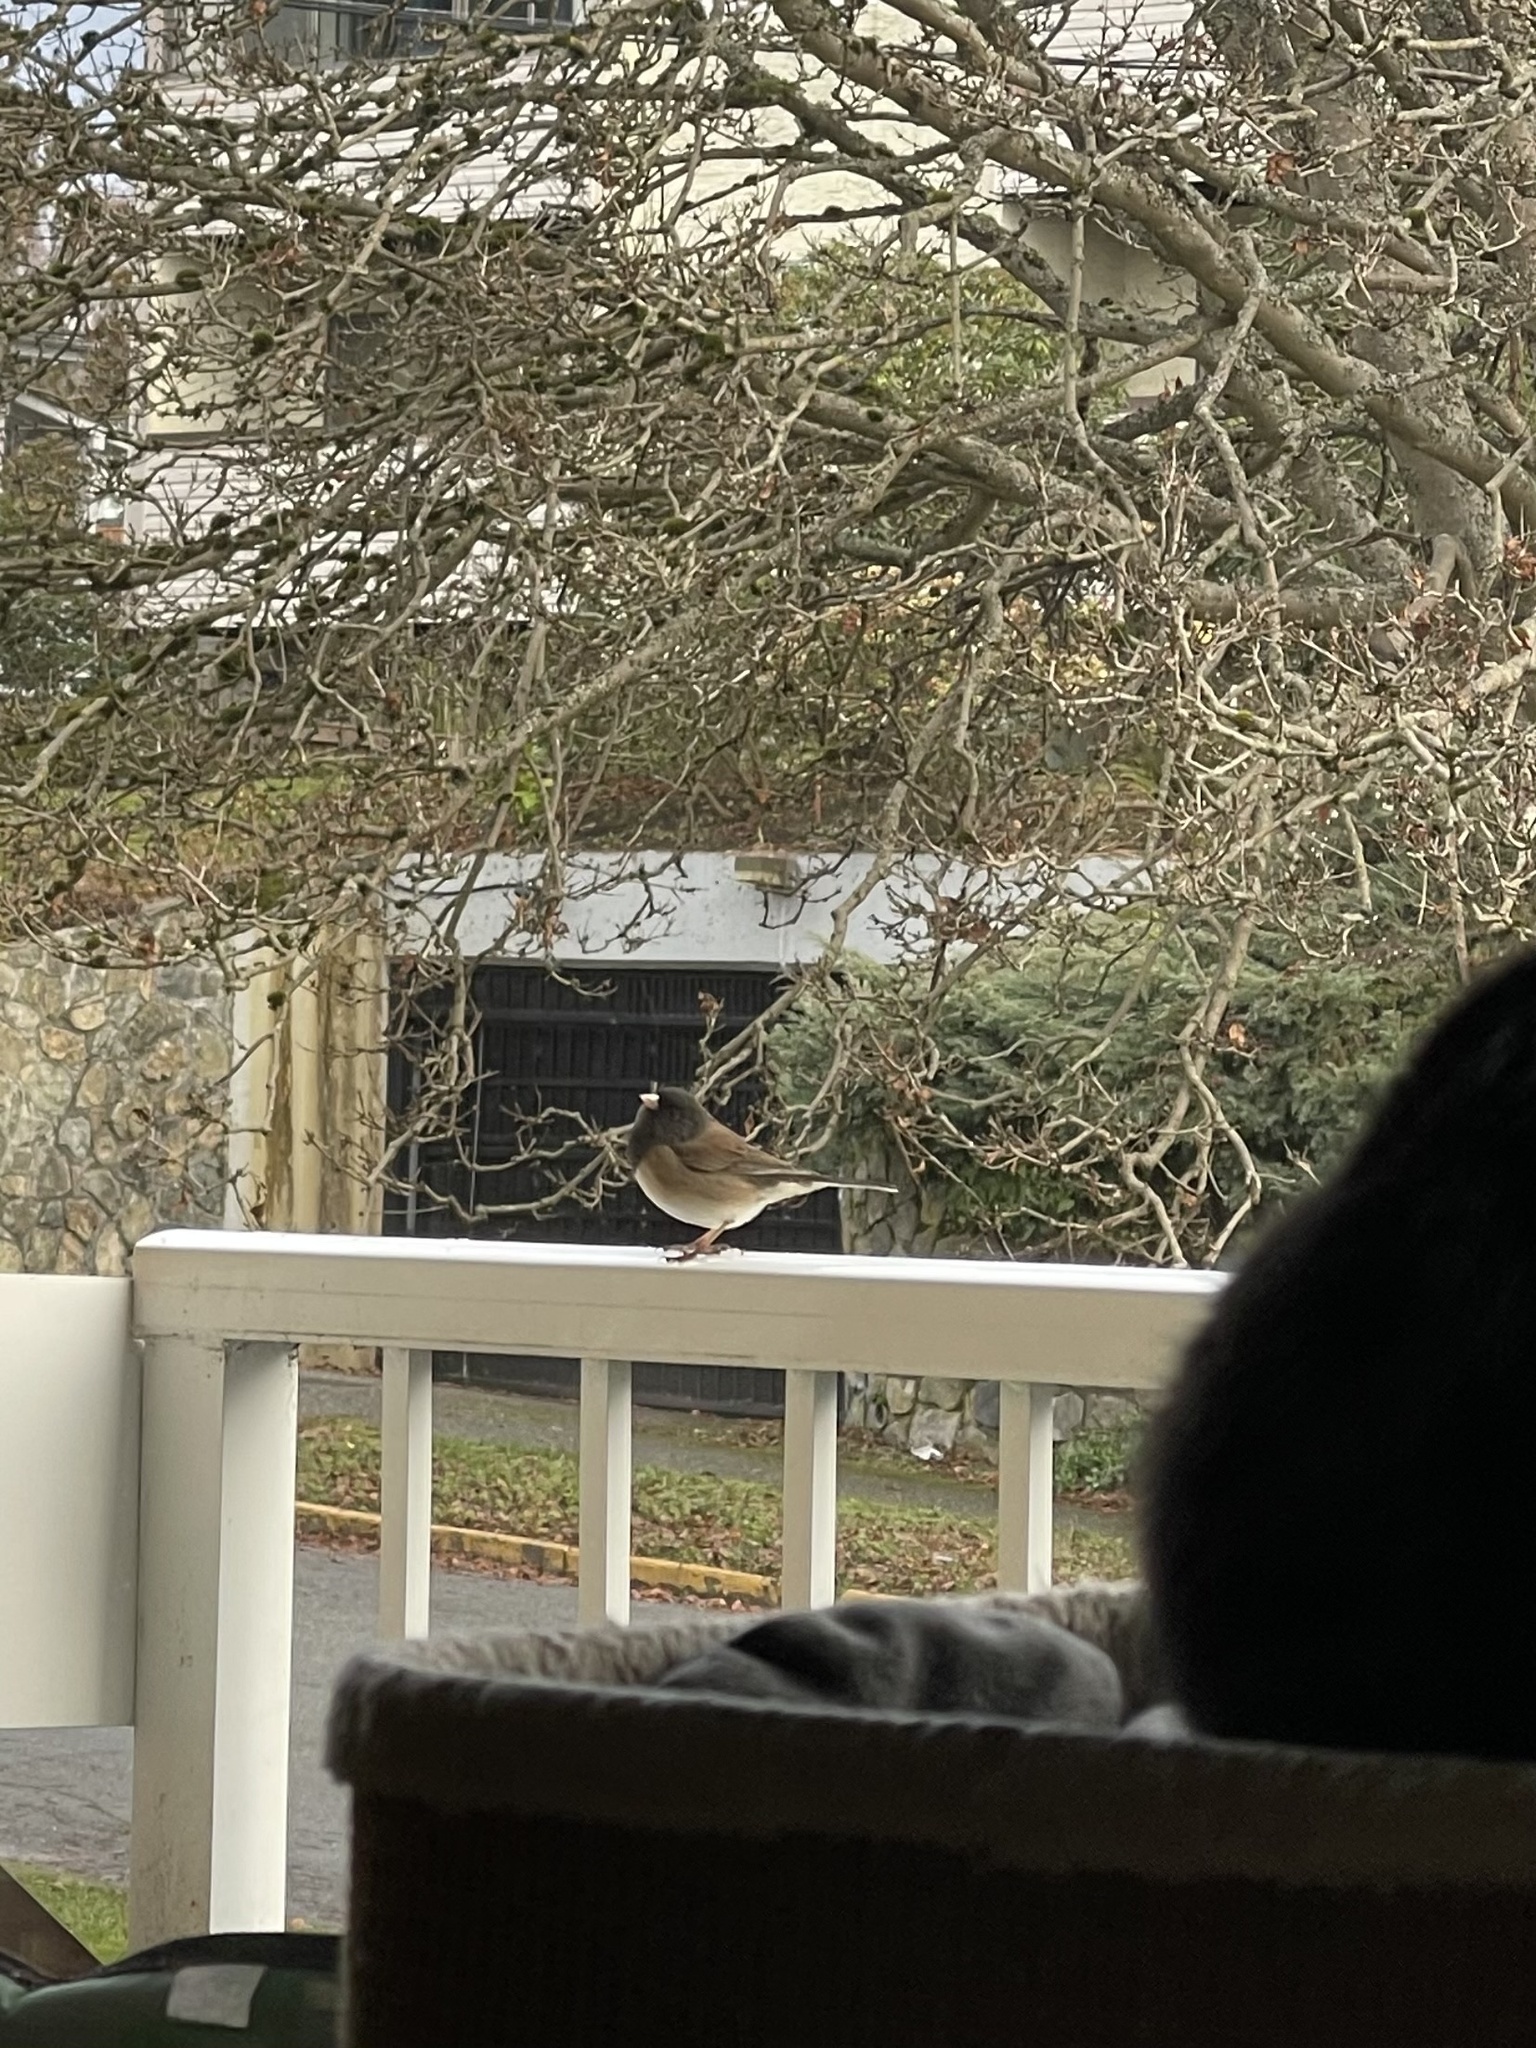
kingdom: Animalia
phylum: Chordata
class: Aves
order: Passeriformes
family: Passerellidae
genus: Junco
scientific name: Junco hyemalis
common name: Dark-eyed junco
